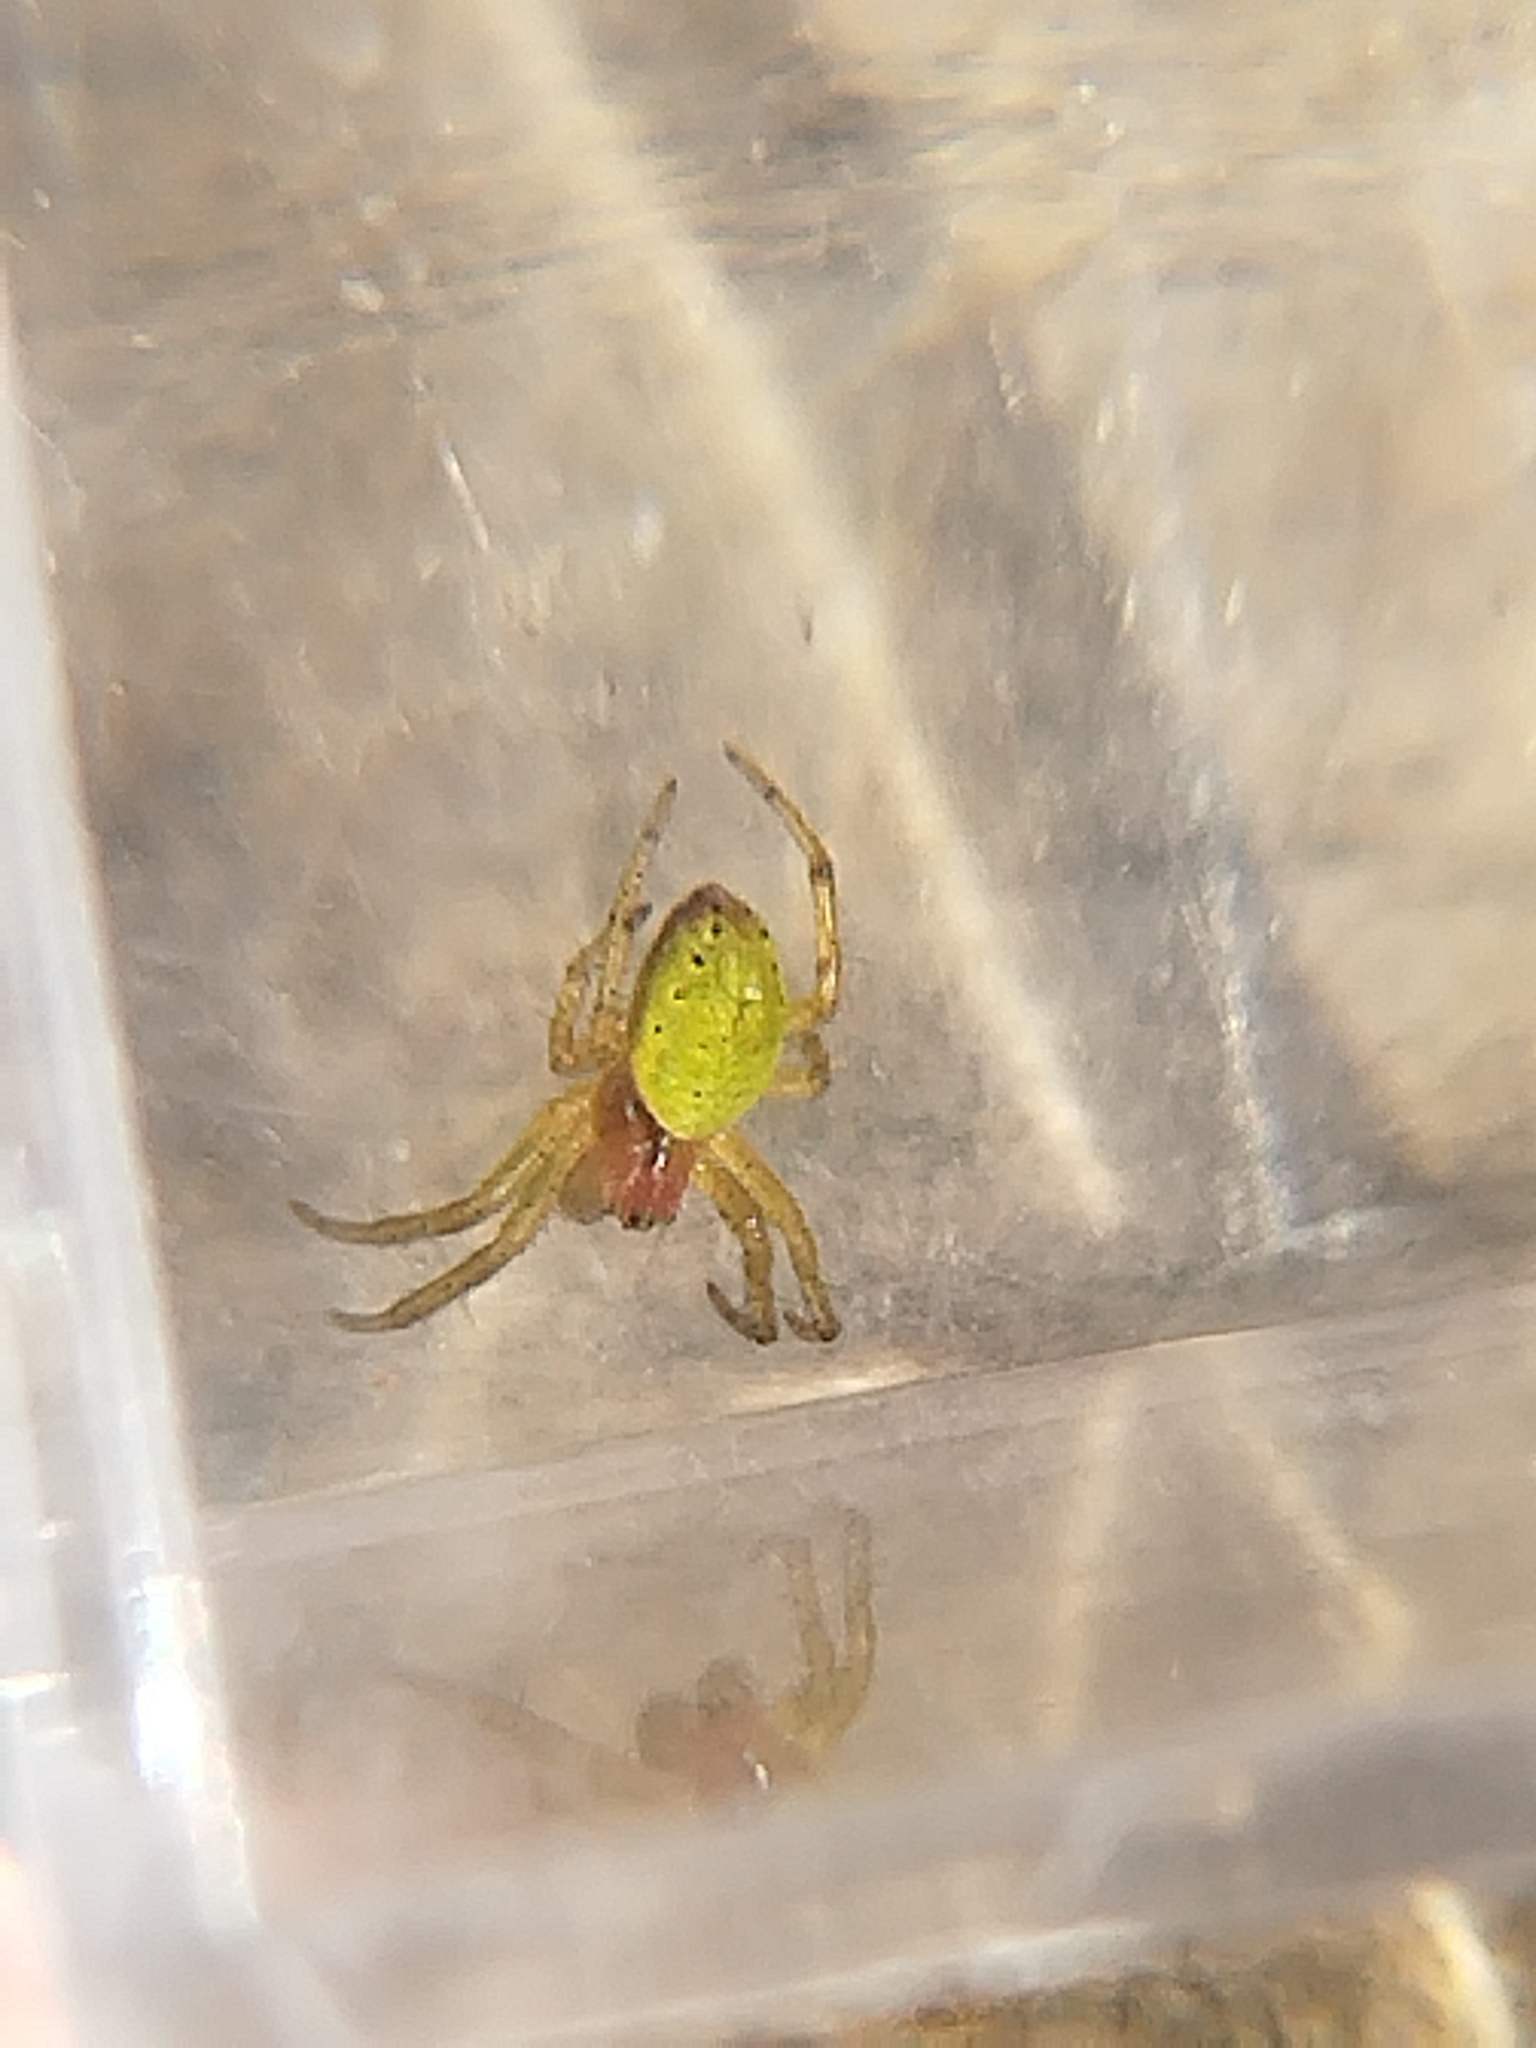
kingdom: Animalia
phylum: Arthropoda
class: Arachnida
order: Araneae
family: Araneidae
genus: Araniella
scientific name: Araniella cucurbitina
